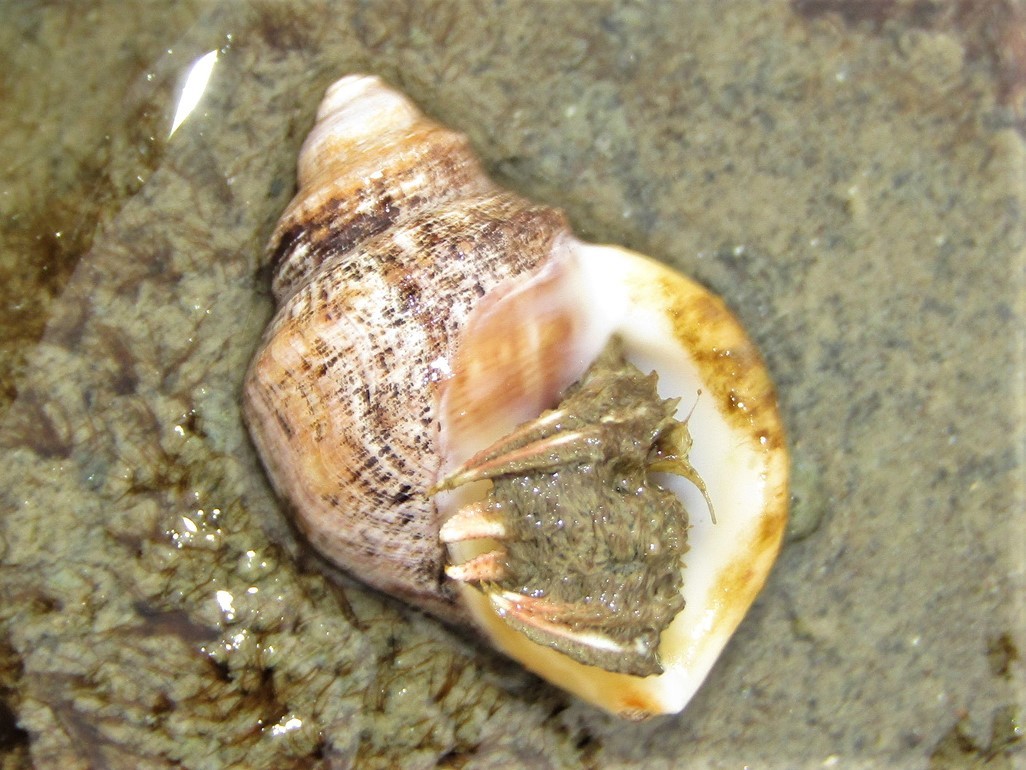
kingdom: Animalia
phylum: Arthropoda
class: Malacostraca
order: Decapoda
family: Diogenidae
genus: Areopaguristes
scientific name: Areopaguristes setosus
